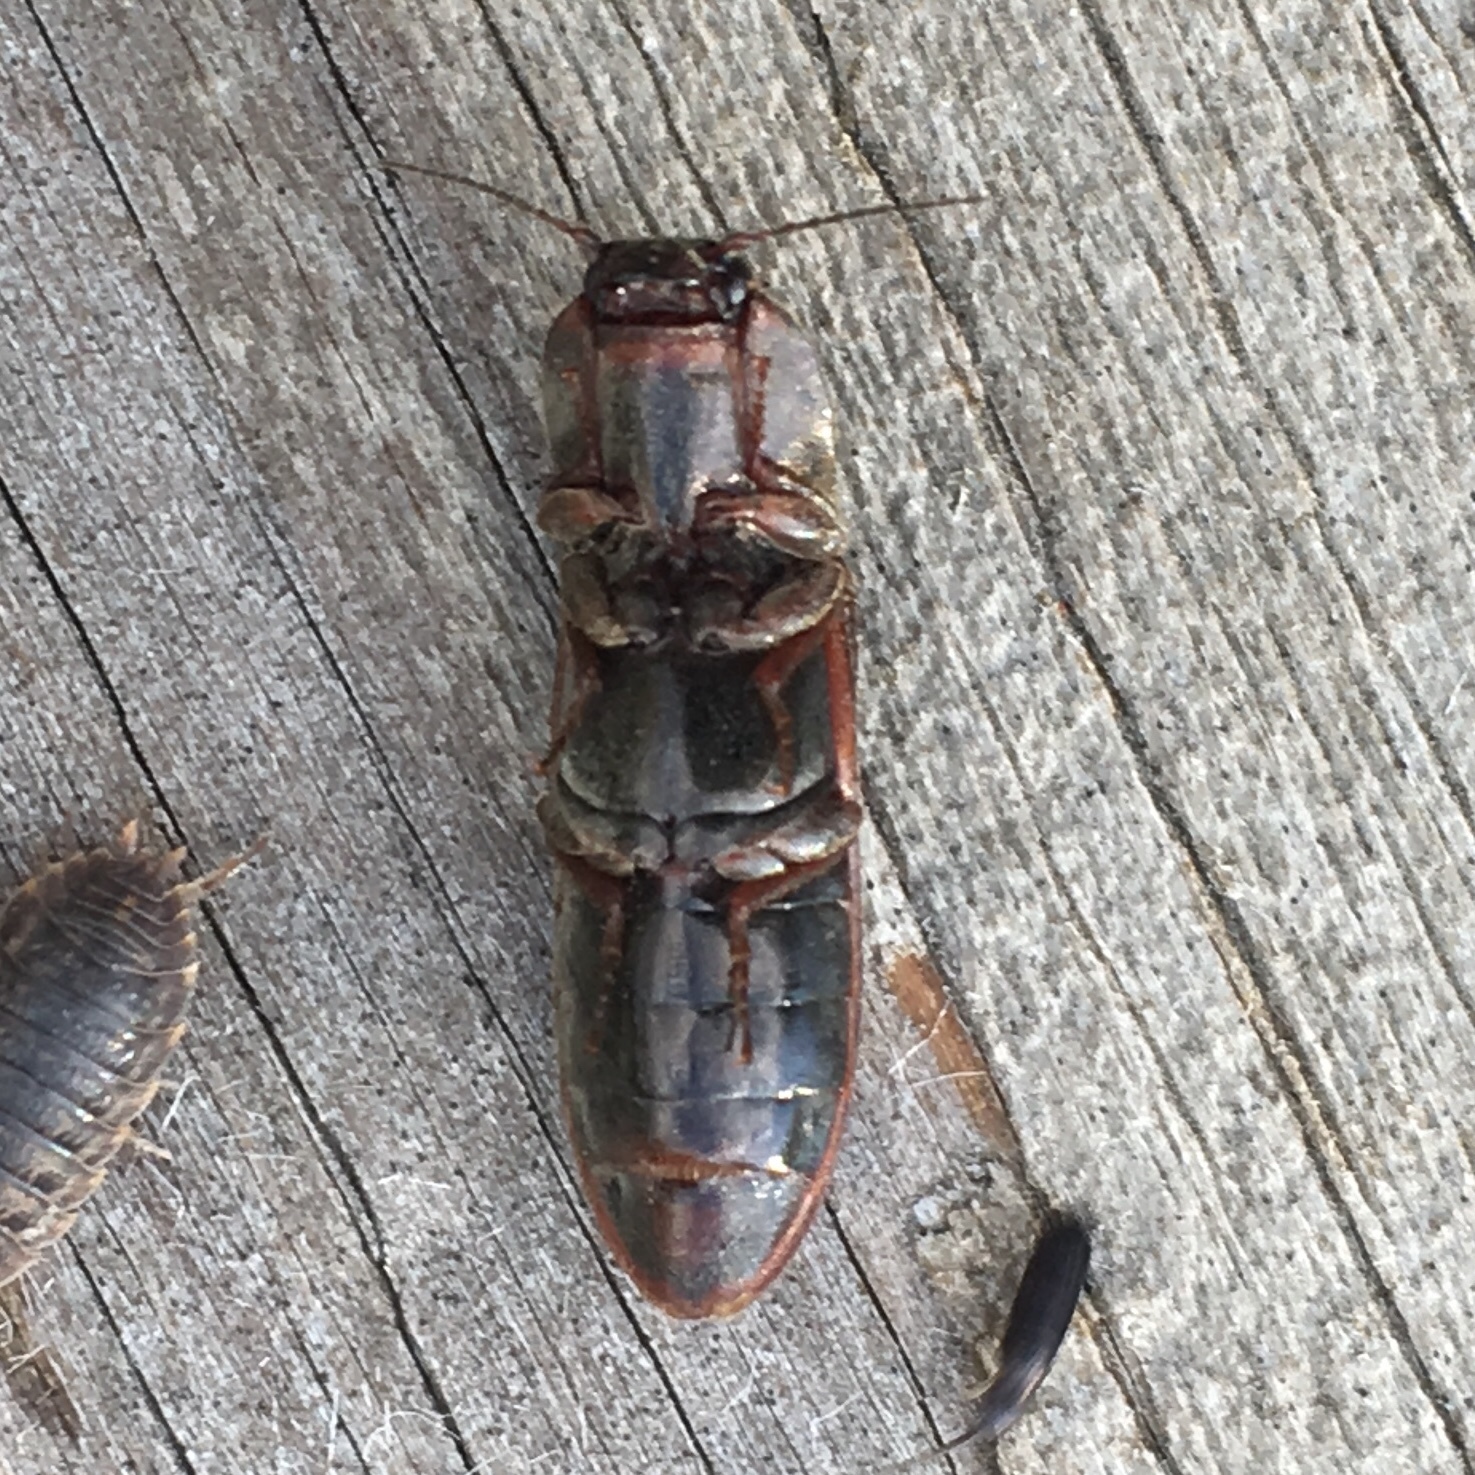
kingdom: Animalia
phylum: Arthropoda
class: Insecta
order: Coleoptera
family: Elateridae
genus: Sylvanelater
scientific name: Sylvanelater cylindriformis
